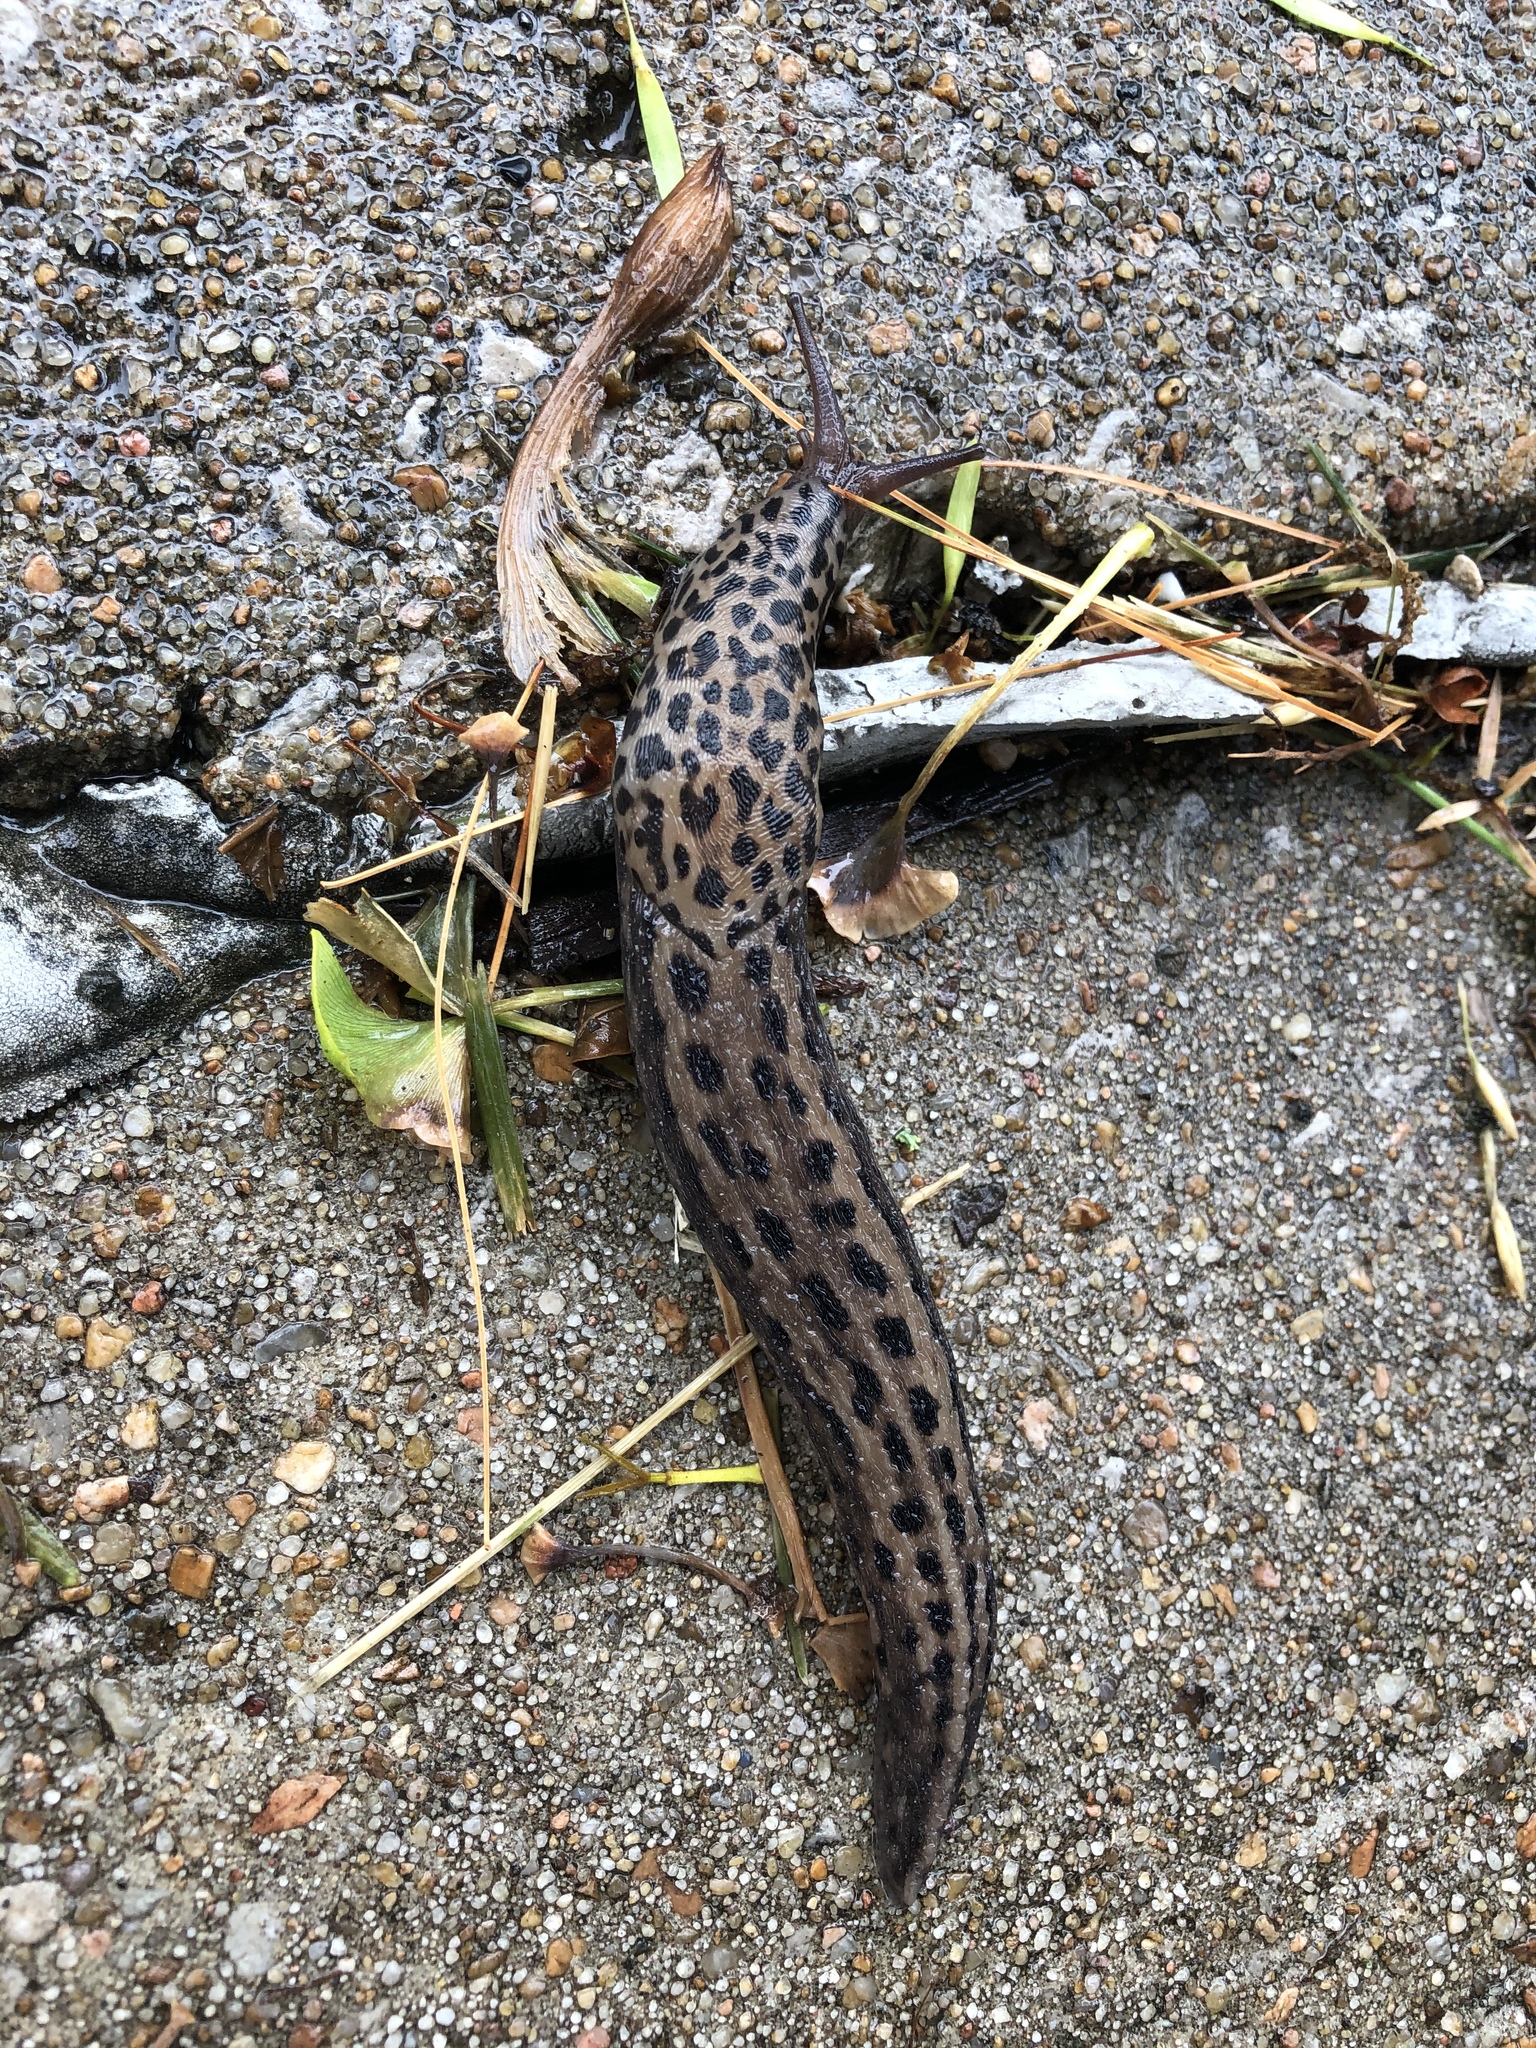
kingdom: Animalia
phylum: Mollusca
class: Gastropoda
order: Stylommatophora
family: Limacidae
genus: Limax
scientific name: Limax maximus
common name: Great grey slug
